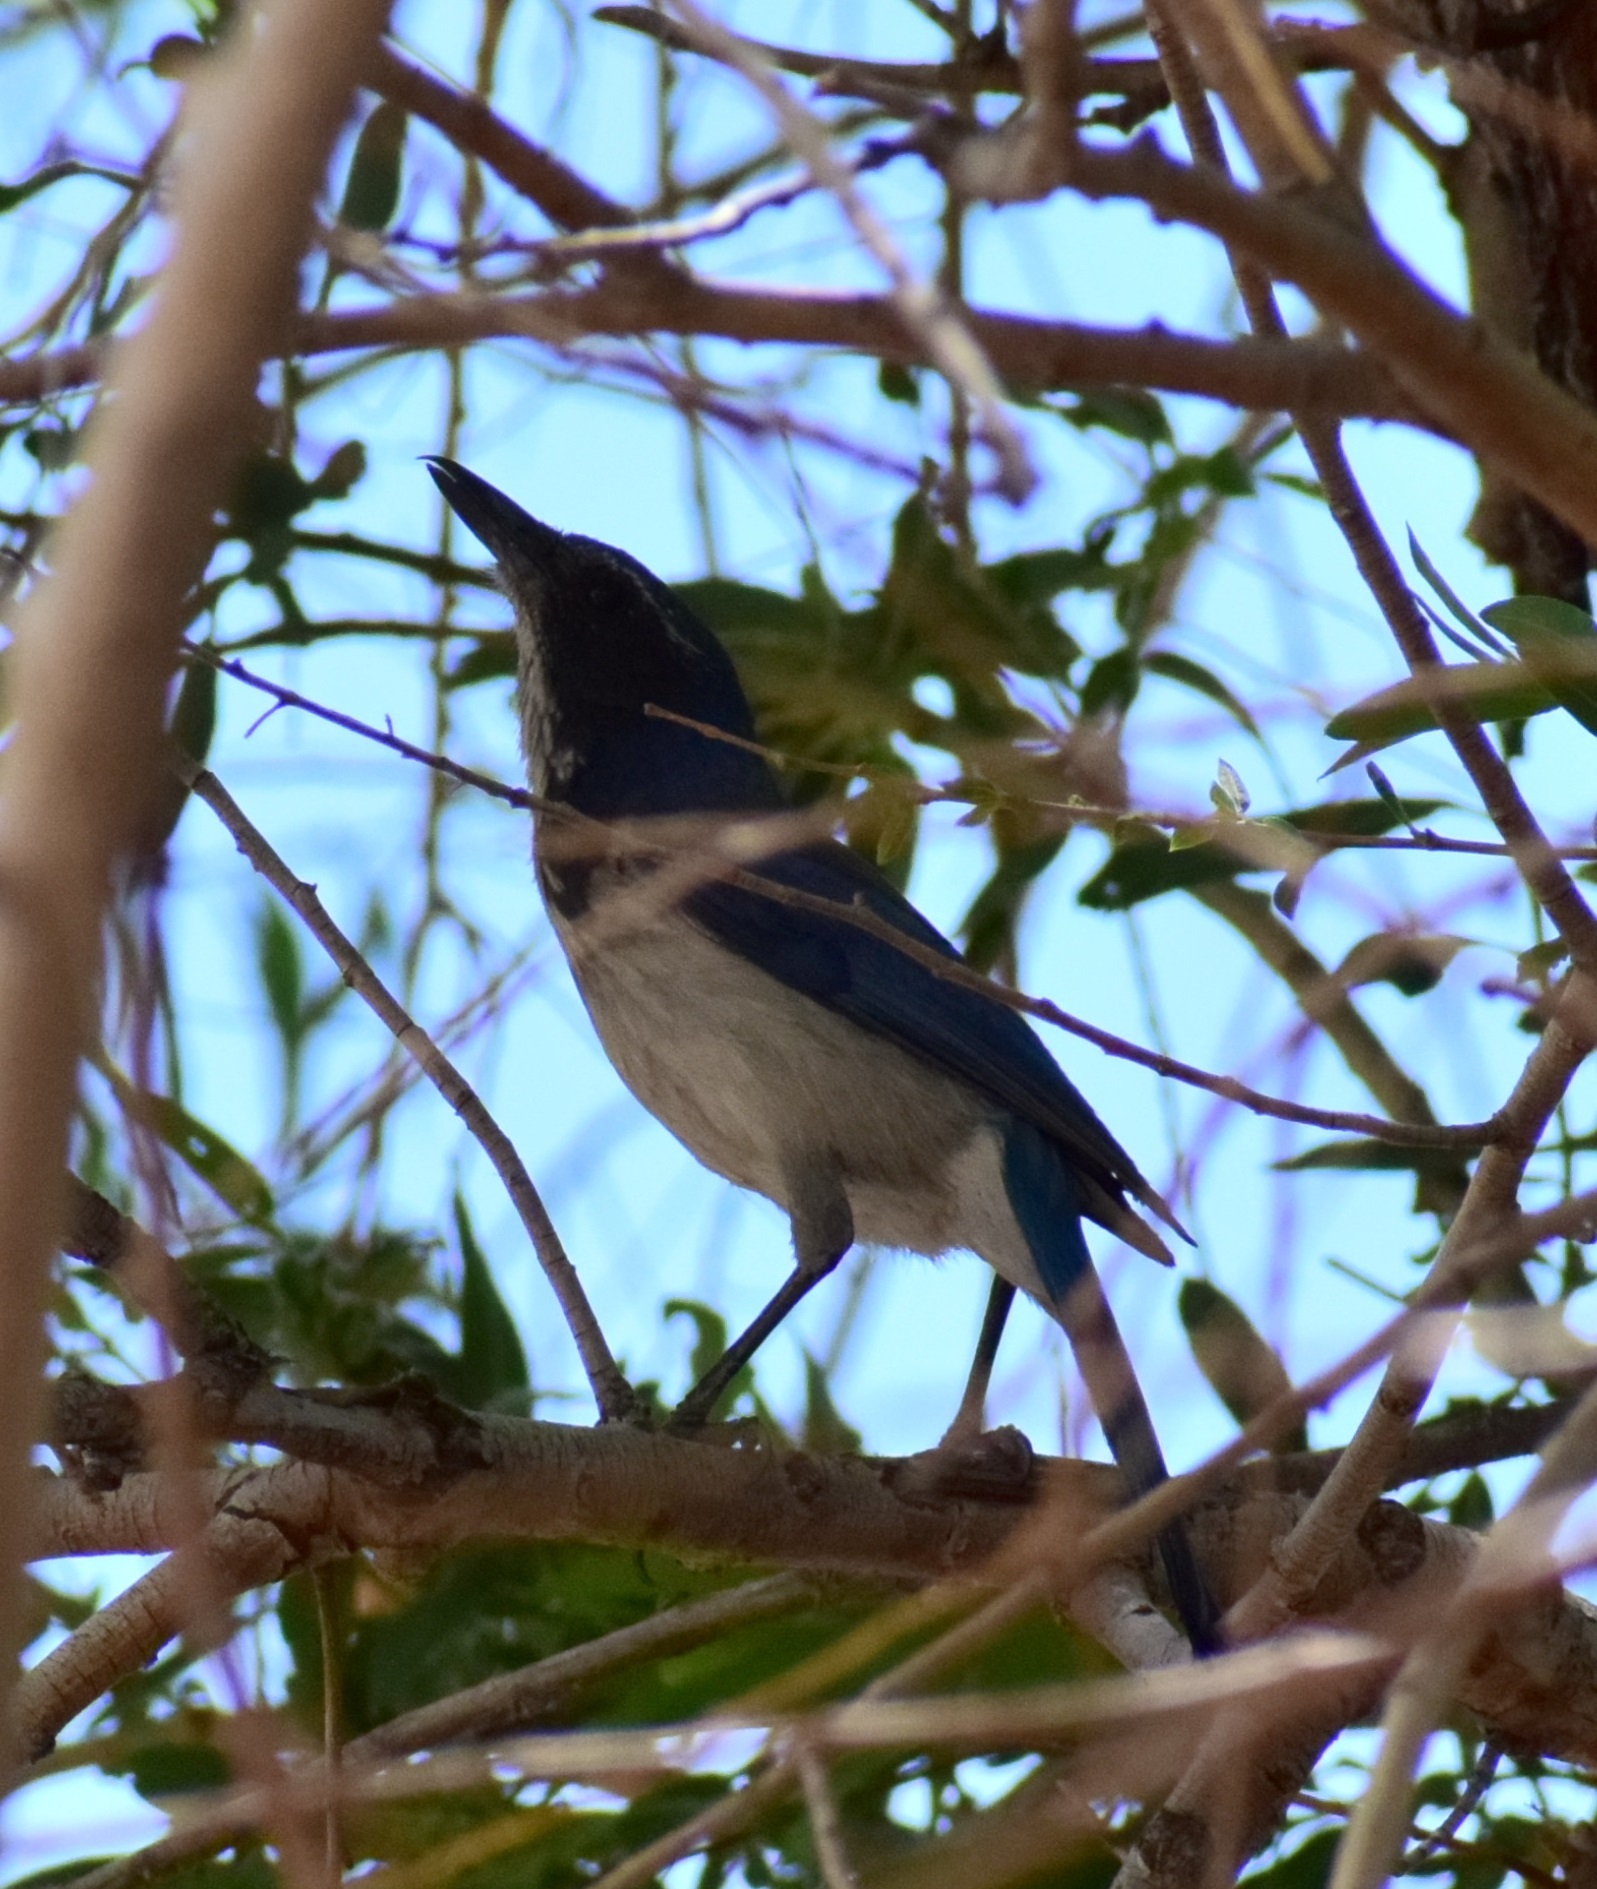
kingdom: Animalia
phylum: Chordata
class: Aves
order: Passeriformes
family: Corvidae
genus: Aphelocoma
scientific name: Aphelocoma californica
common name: California scrub-jay
